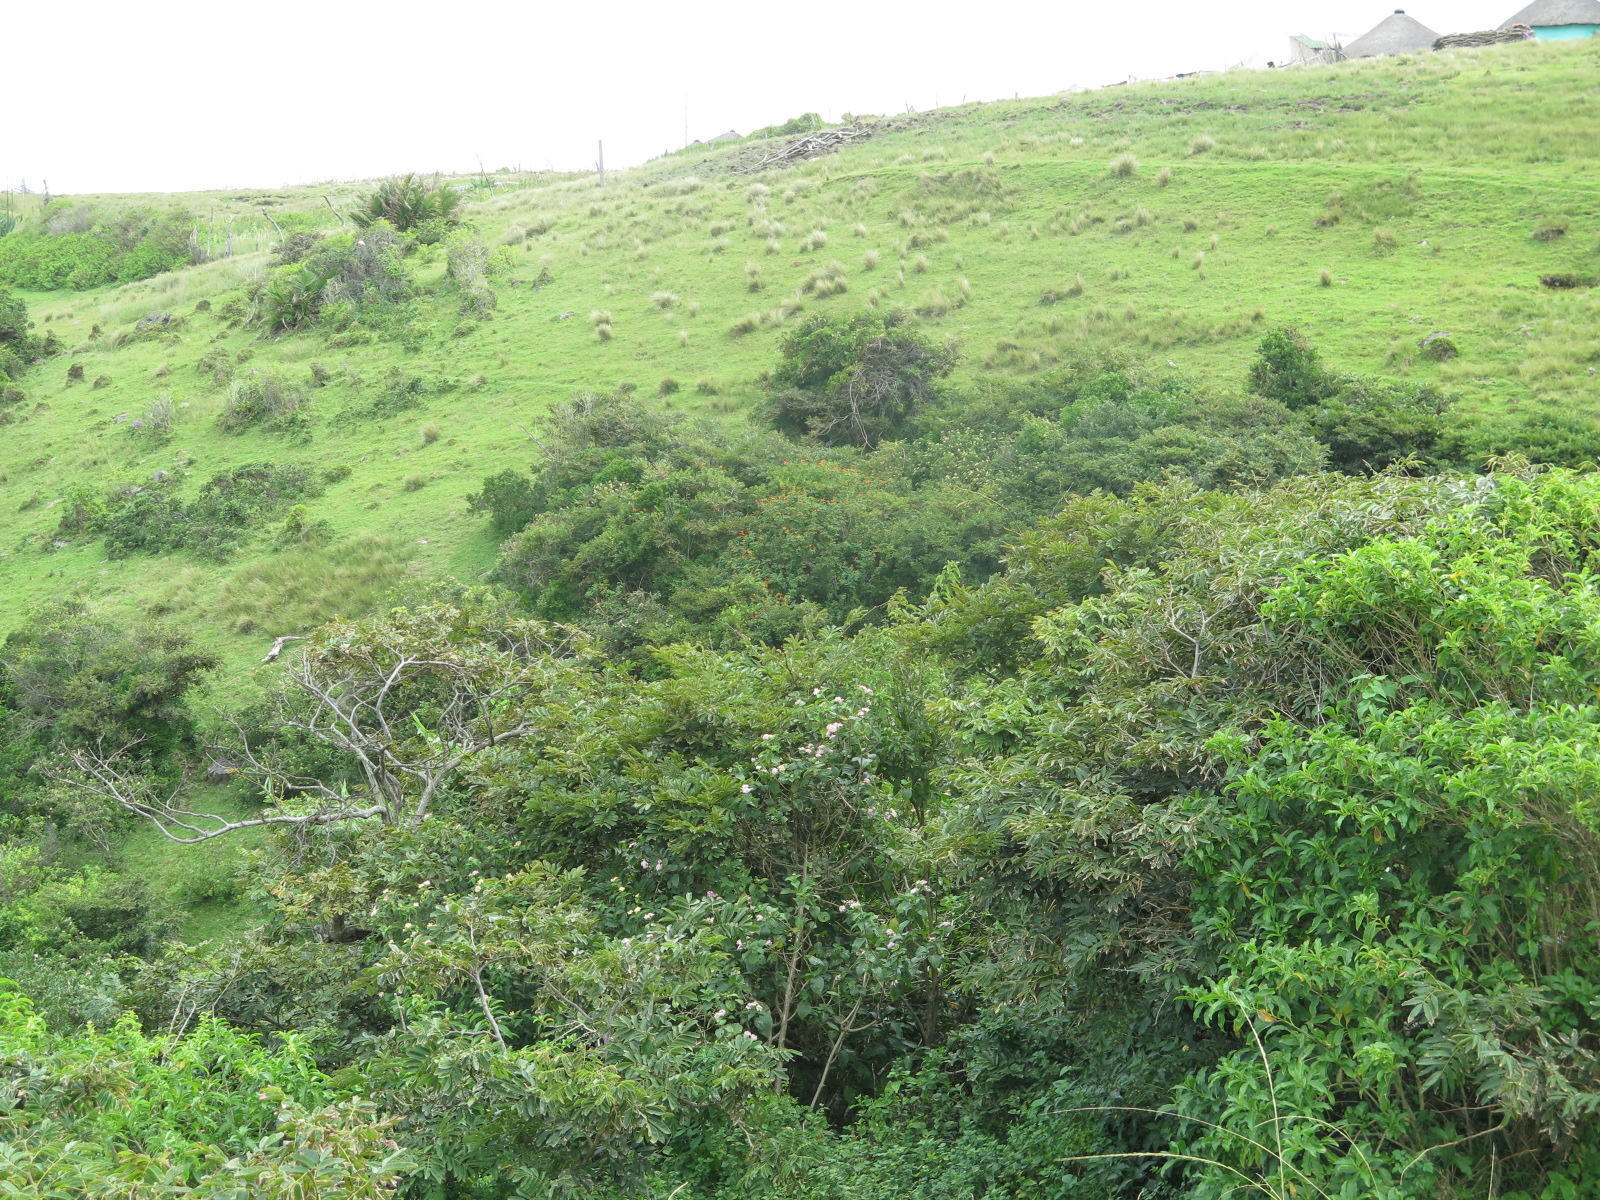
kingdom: Plantae
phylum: Tracheophyta
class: Magnoliopsida
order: Sapindales
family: Rutaceae
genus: Calodendrum
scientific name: Calodendrum capense
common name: Cape chestnut
